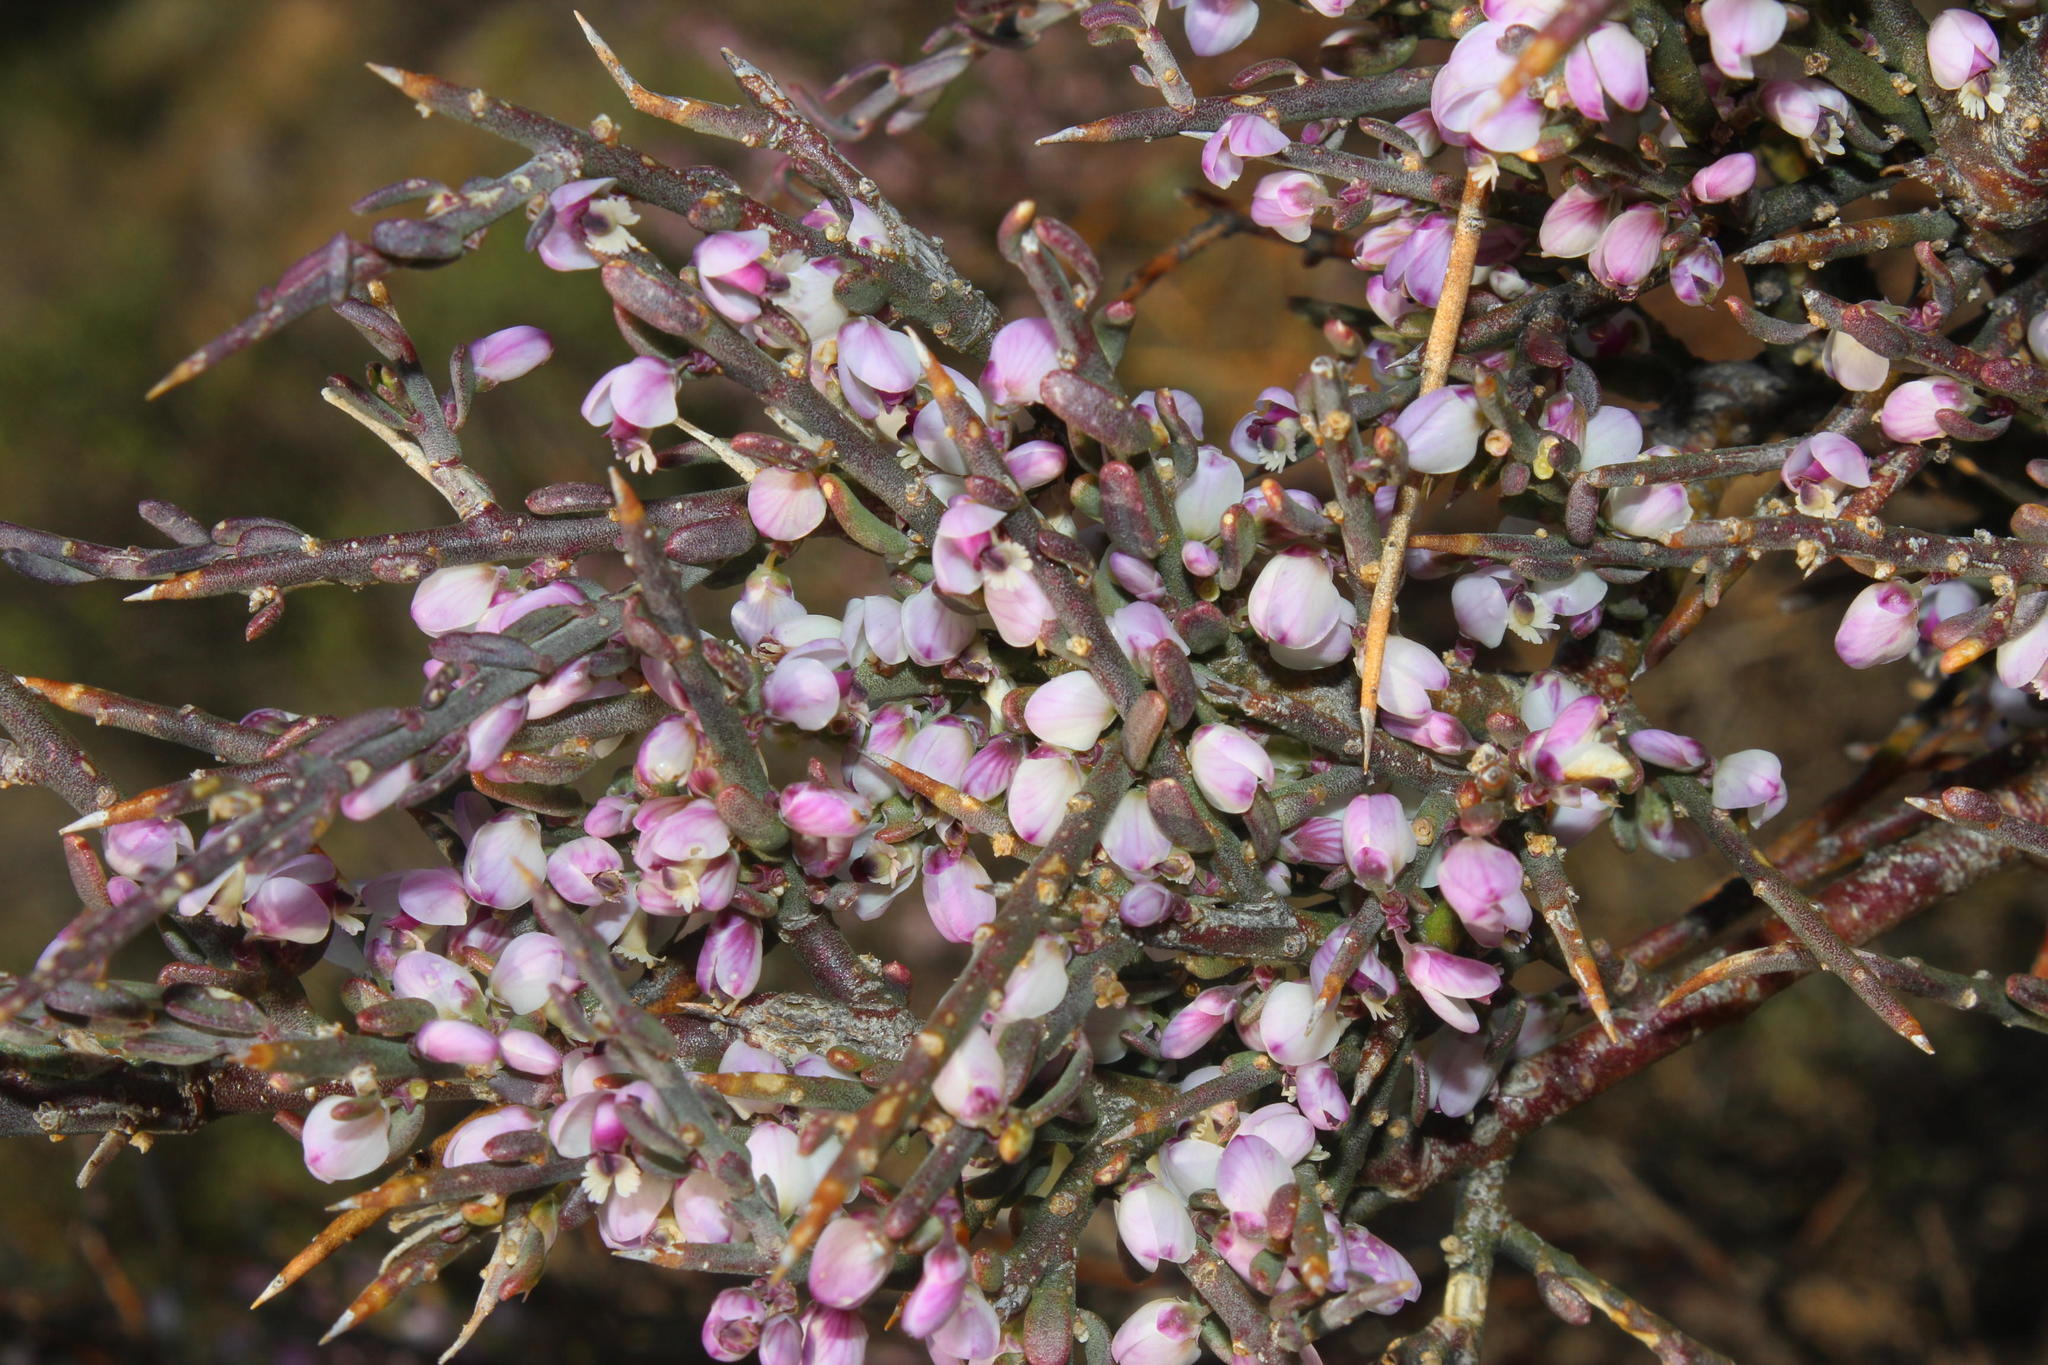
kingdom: Plantae
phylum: Tracheophyta
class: Magnoliopsida
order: Fabales
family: Polygalaceae
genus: Muraltia
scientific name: Muraltia spinosa
